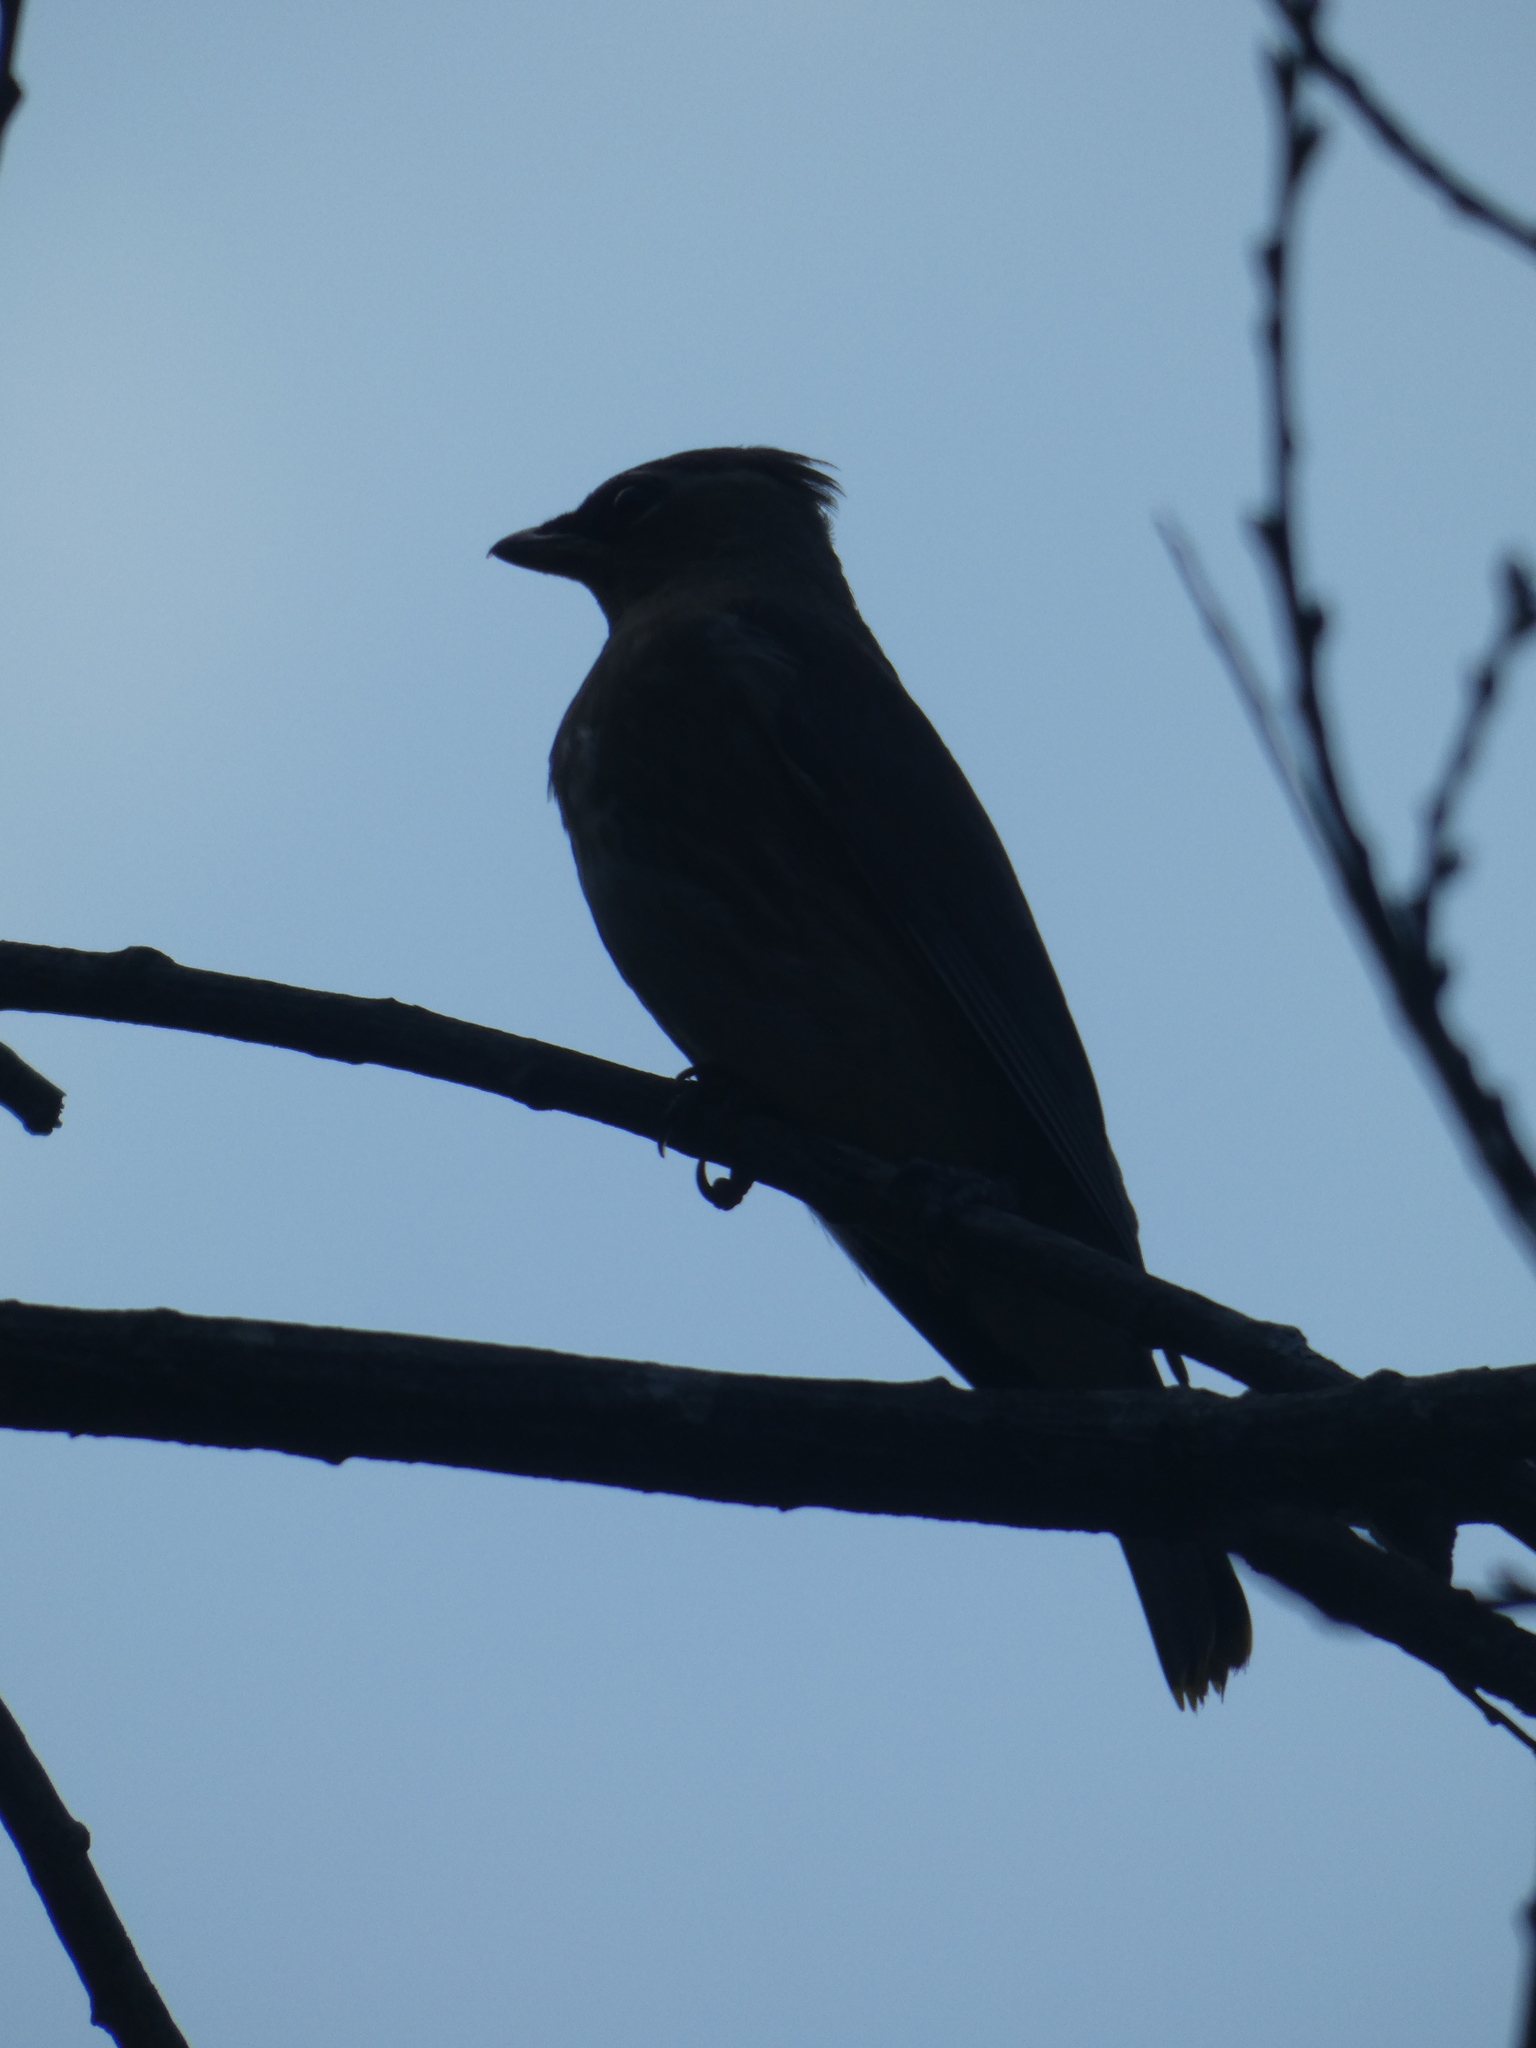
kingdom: Animalia
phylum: Chordata
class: Aves
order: Passeriformes
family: Bombycillidae
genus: Bombycilla
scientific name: Bombycilla cedrorum
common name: Cedar waxwing
